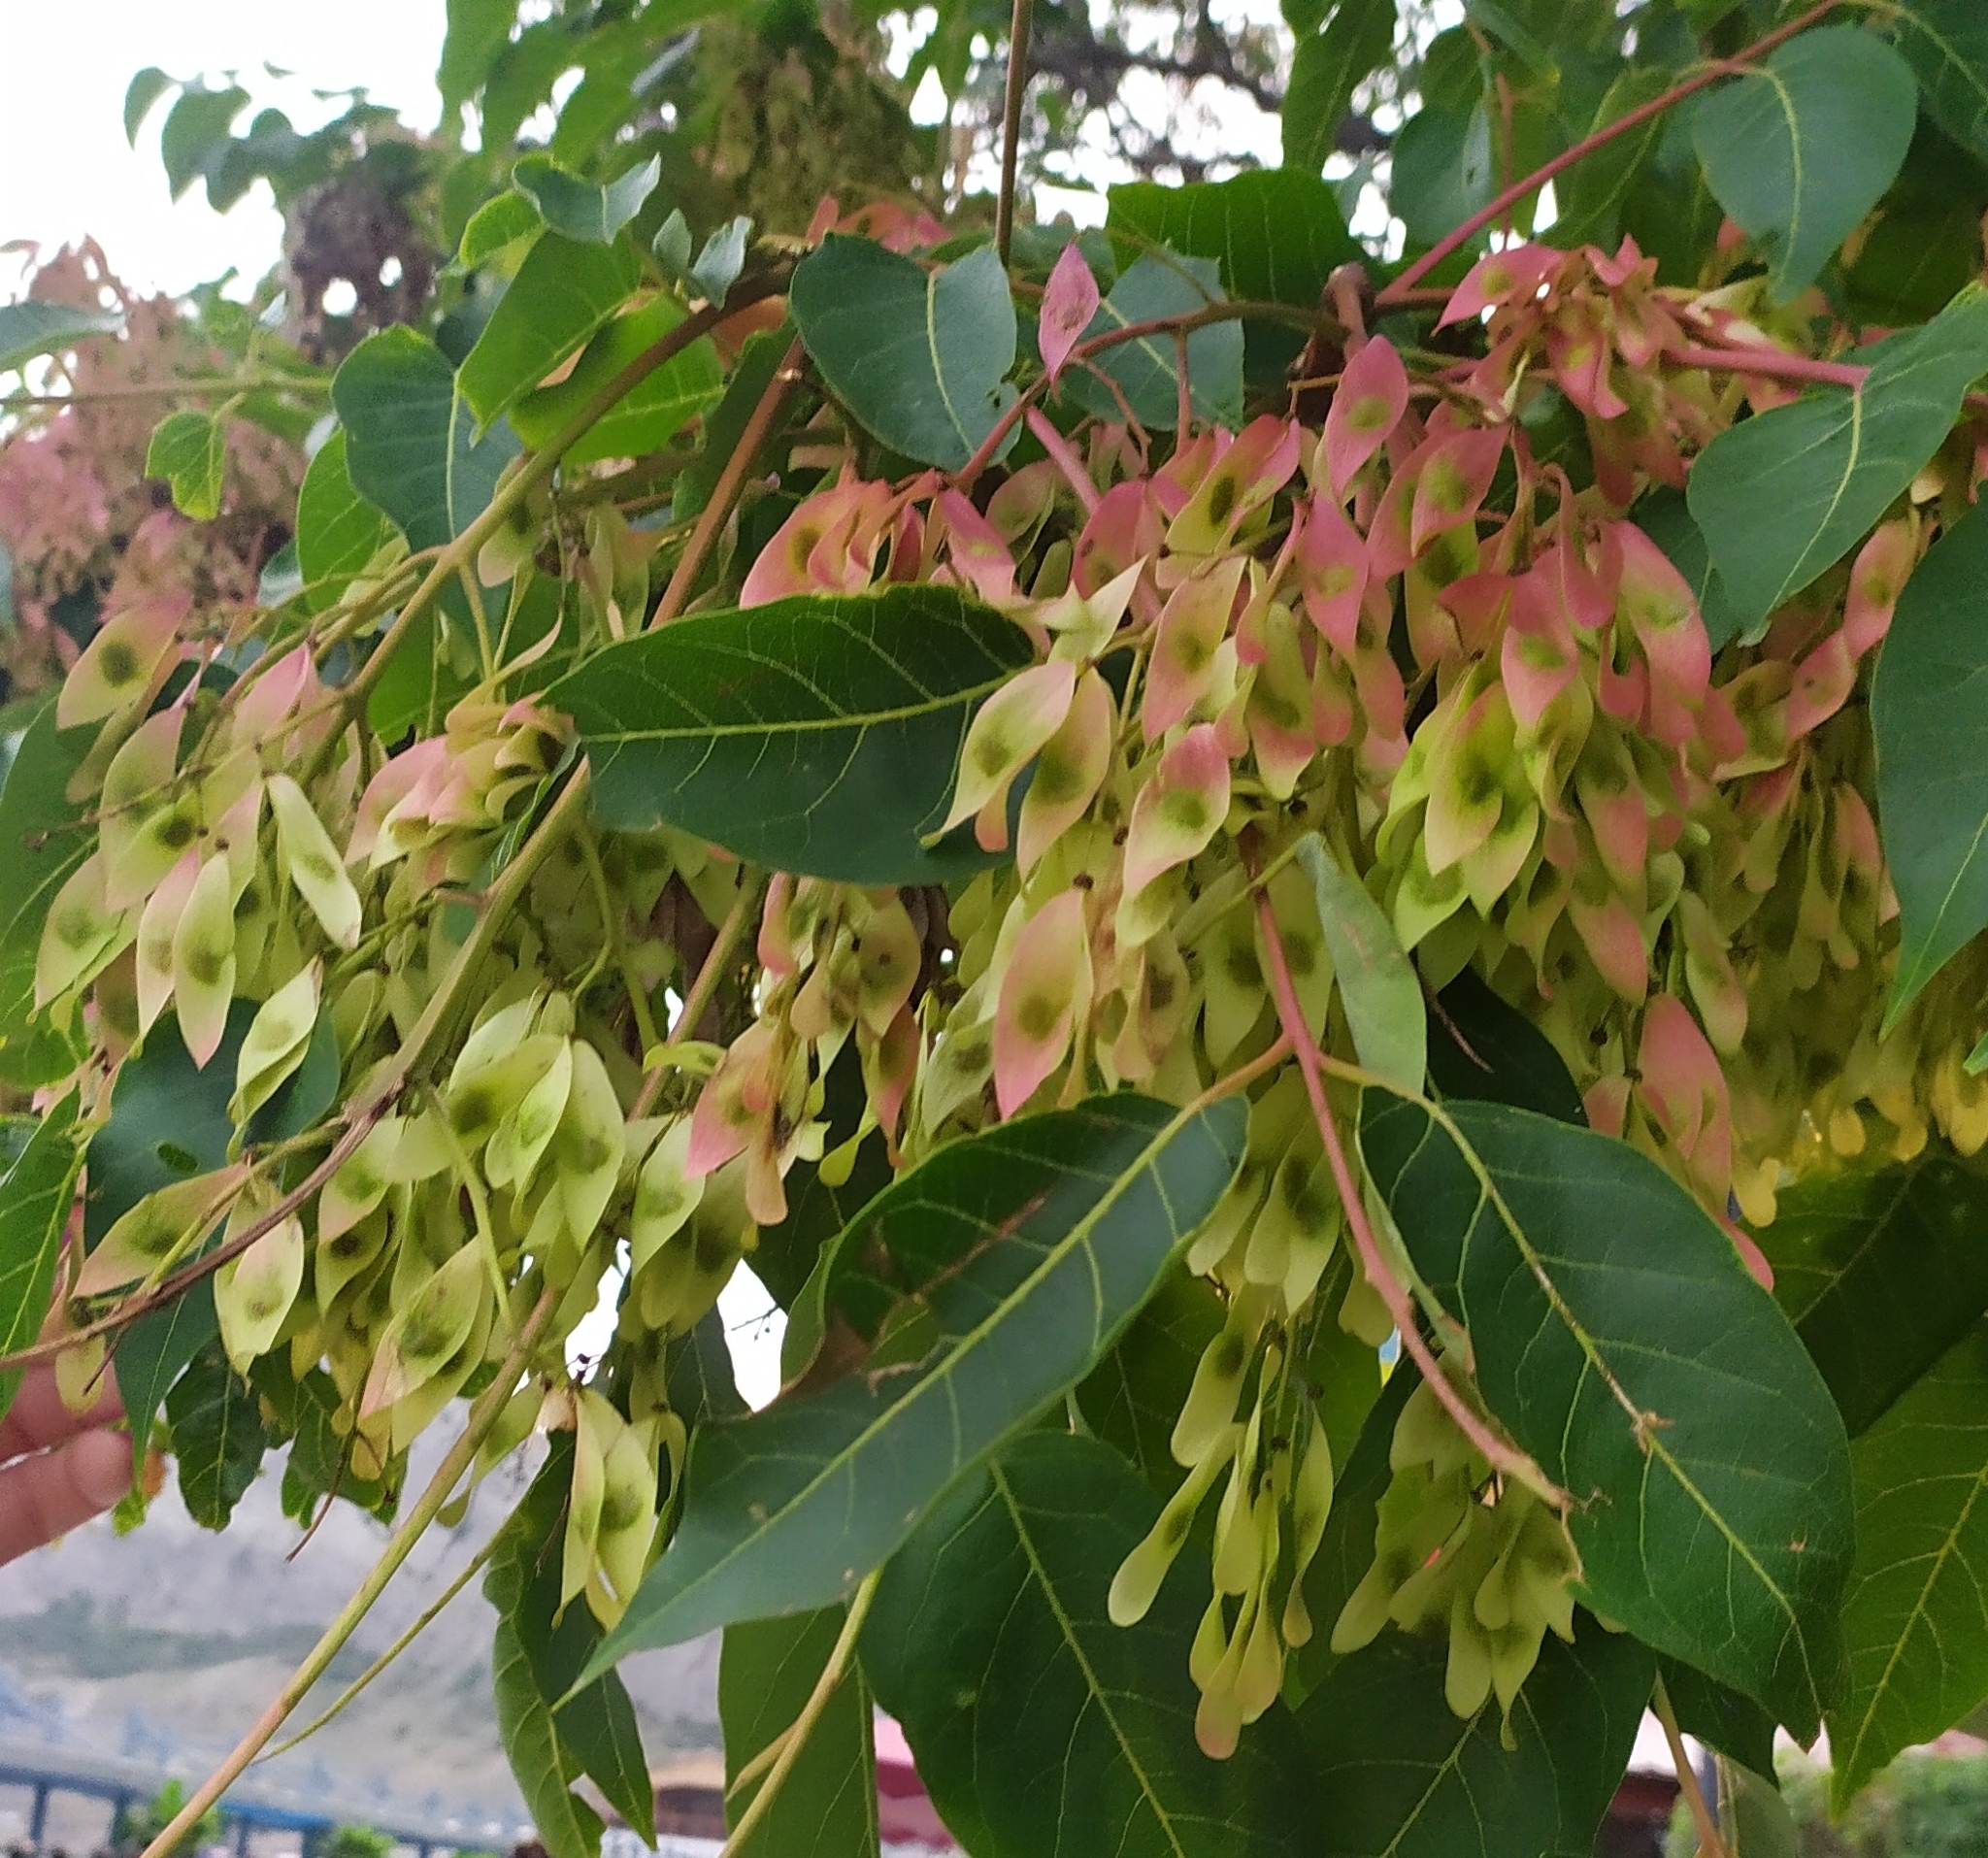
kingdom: Plantae
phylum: Tracheophyta
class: Magnoliopsida
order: Sapindales
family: Simaroubaceae
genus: Ailanthus
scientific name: Ailanthus altissima
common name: Tree-of-heaven
